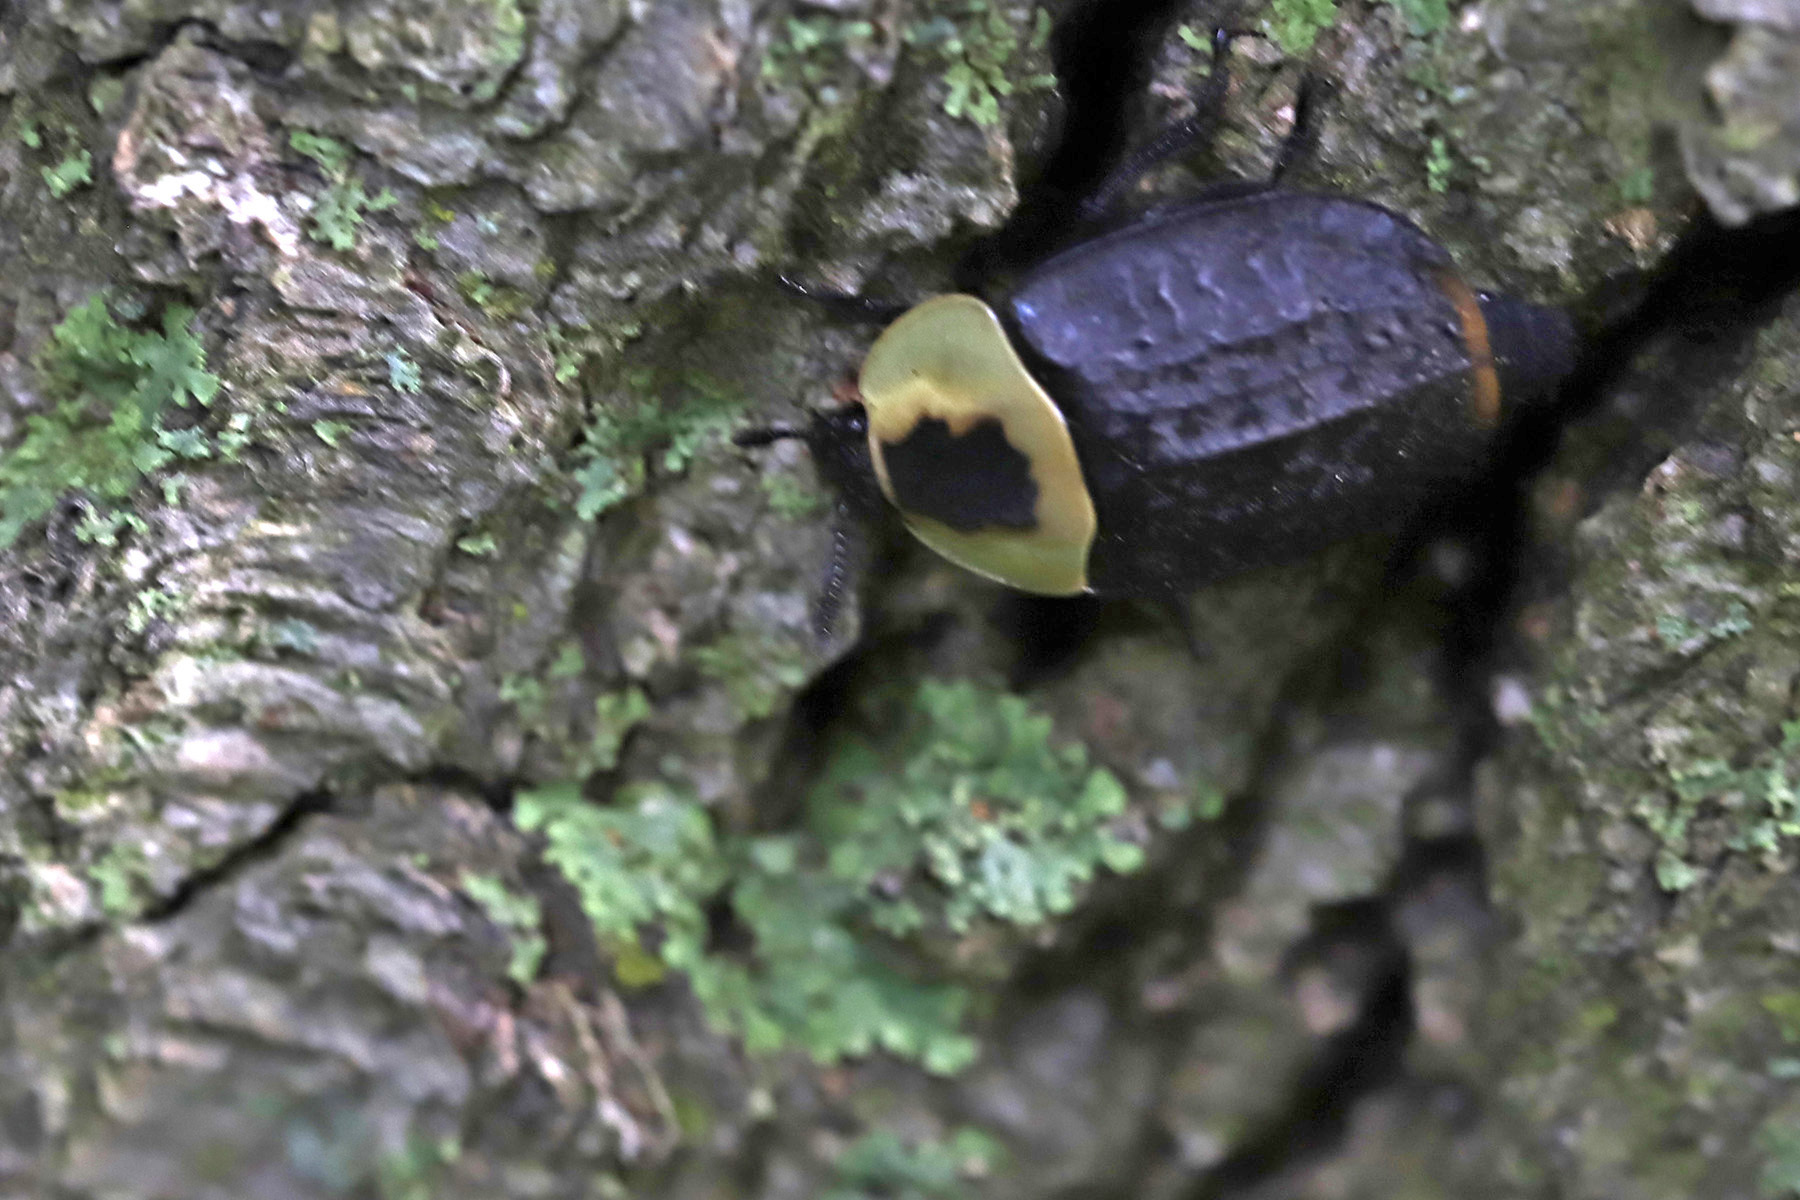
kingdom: Animalia
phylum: Arthropoda
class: Insecta
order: Coleoptera
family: Staphylinidae
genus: Necrophila
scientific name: Necrophila americana
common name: American carrion beetle
